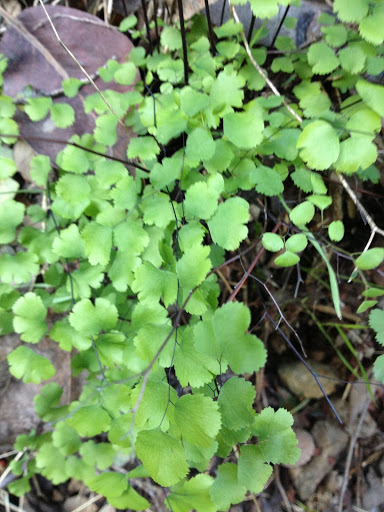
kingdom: Plantae
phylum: Tracheophyta
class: Polypodiopsida
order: Polypodiales
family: Pteridaceae
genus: Adiantum
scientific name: Adiantum jordanii
